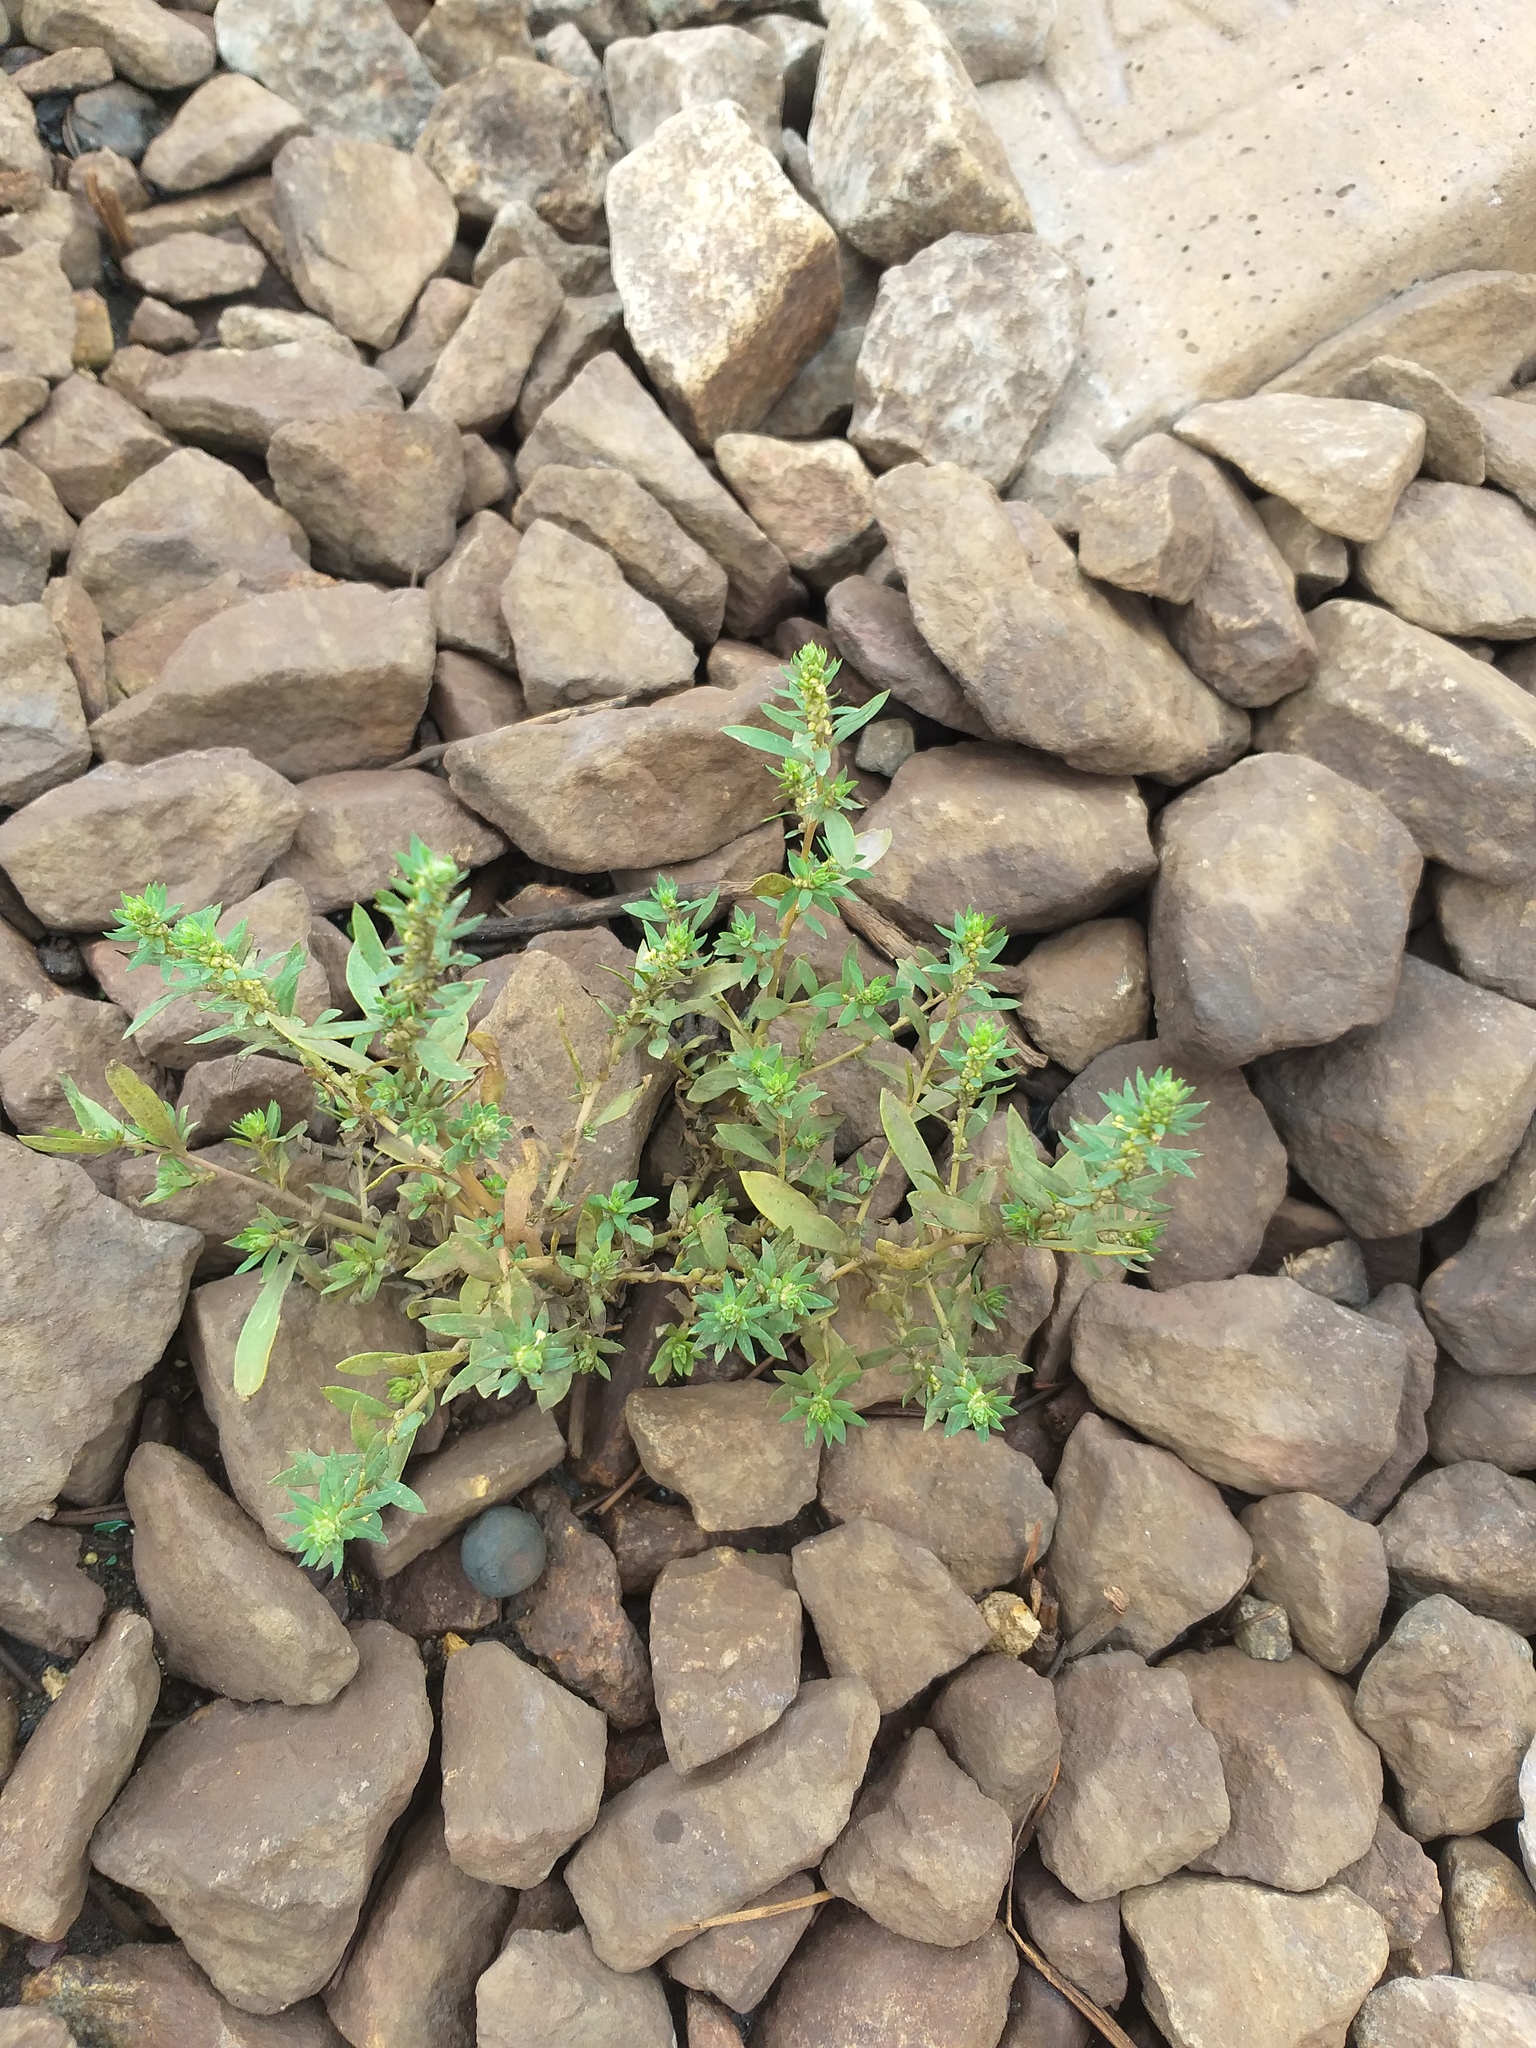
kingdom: Plantae
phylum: Tracheophyta
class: Magnoliopsida
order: Caryophyllales
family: Amaranthaceae
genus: Bassia
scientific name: Bassia scoparia
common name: Belvedere
